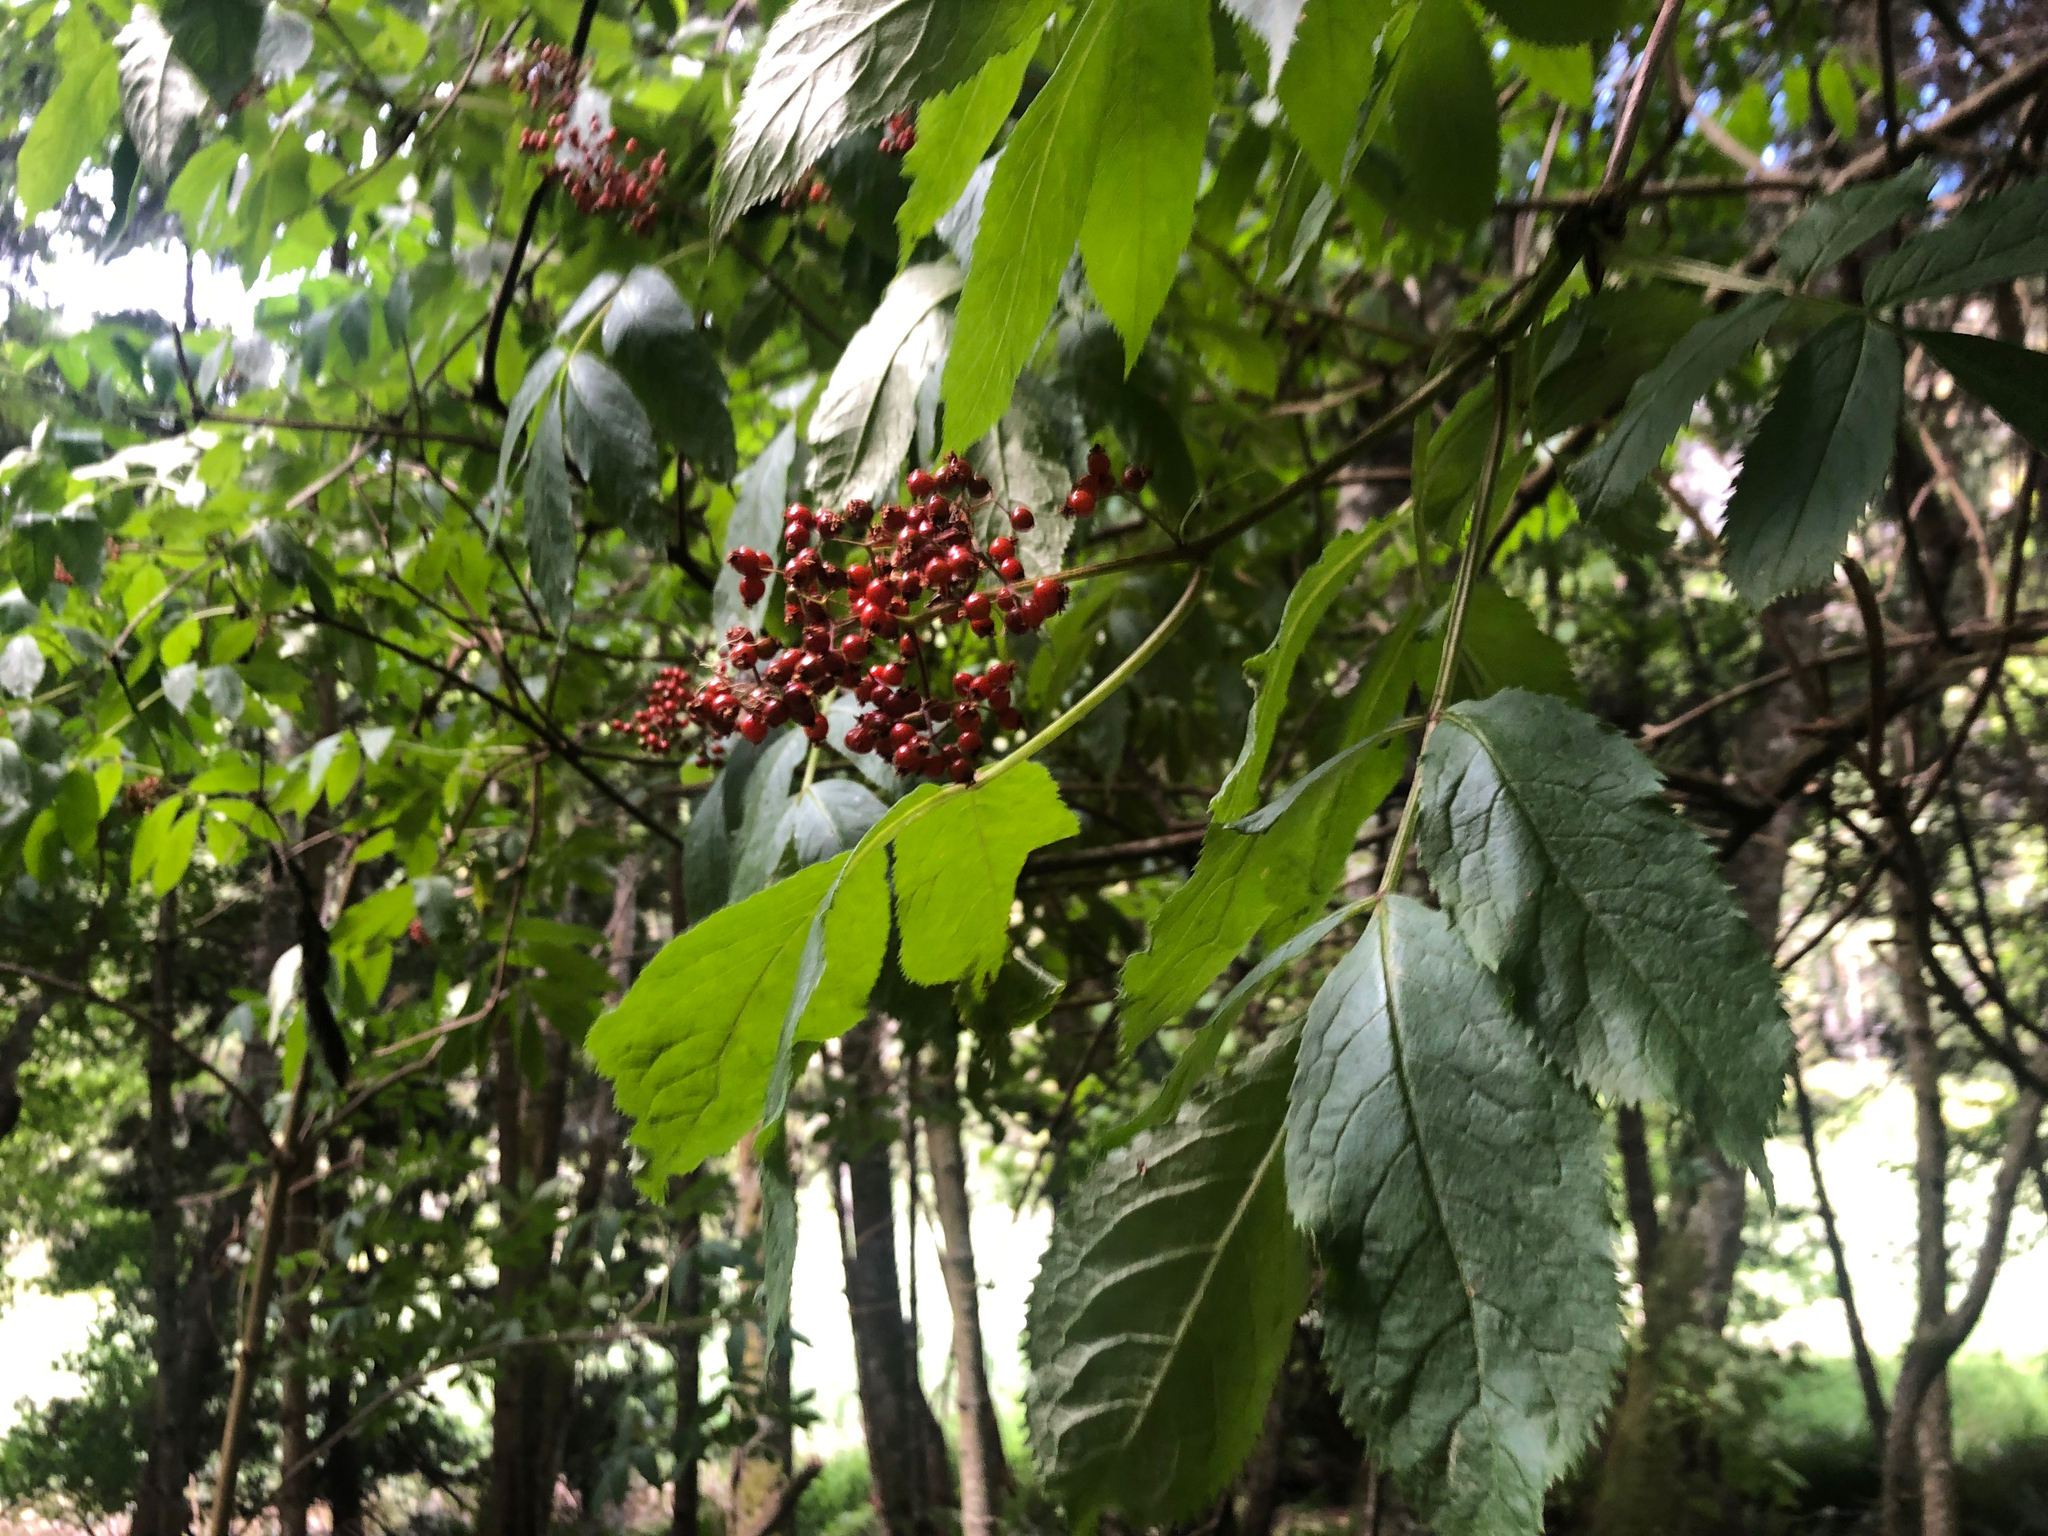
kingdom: Plantae
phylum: Tracheophyta
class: Magnoliopsida
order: Dipsacales
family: Viburnaceae
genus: Sambucus
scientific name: Sambucus racemosa
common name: Red-berried elder
